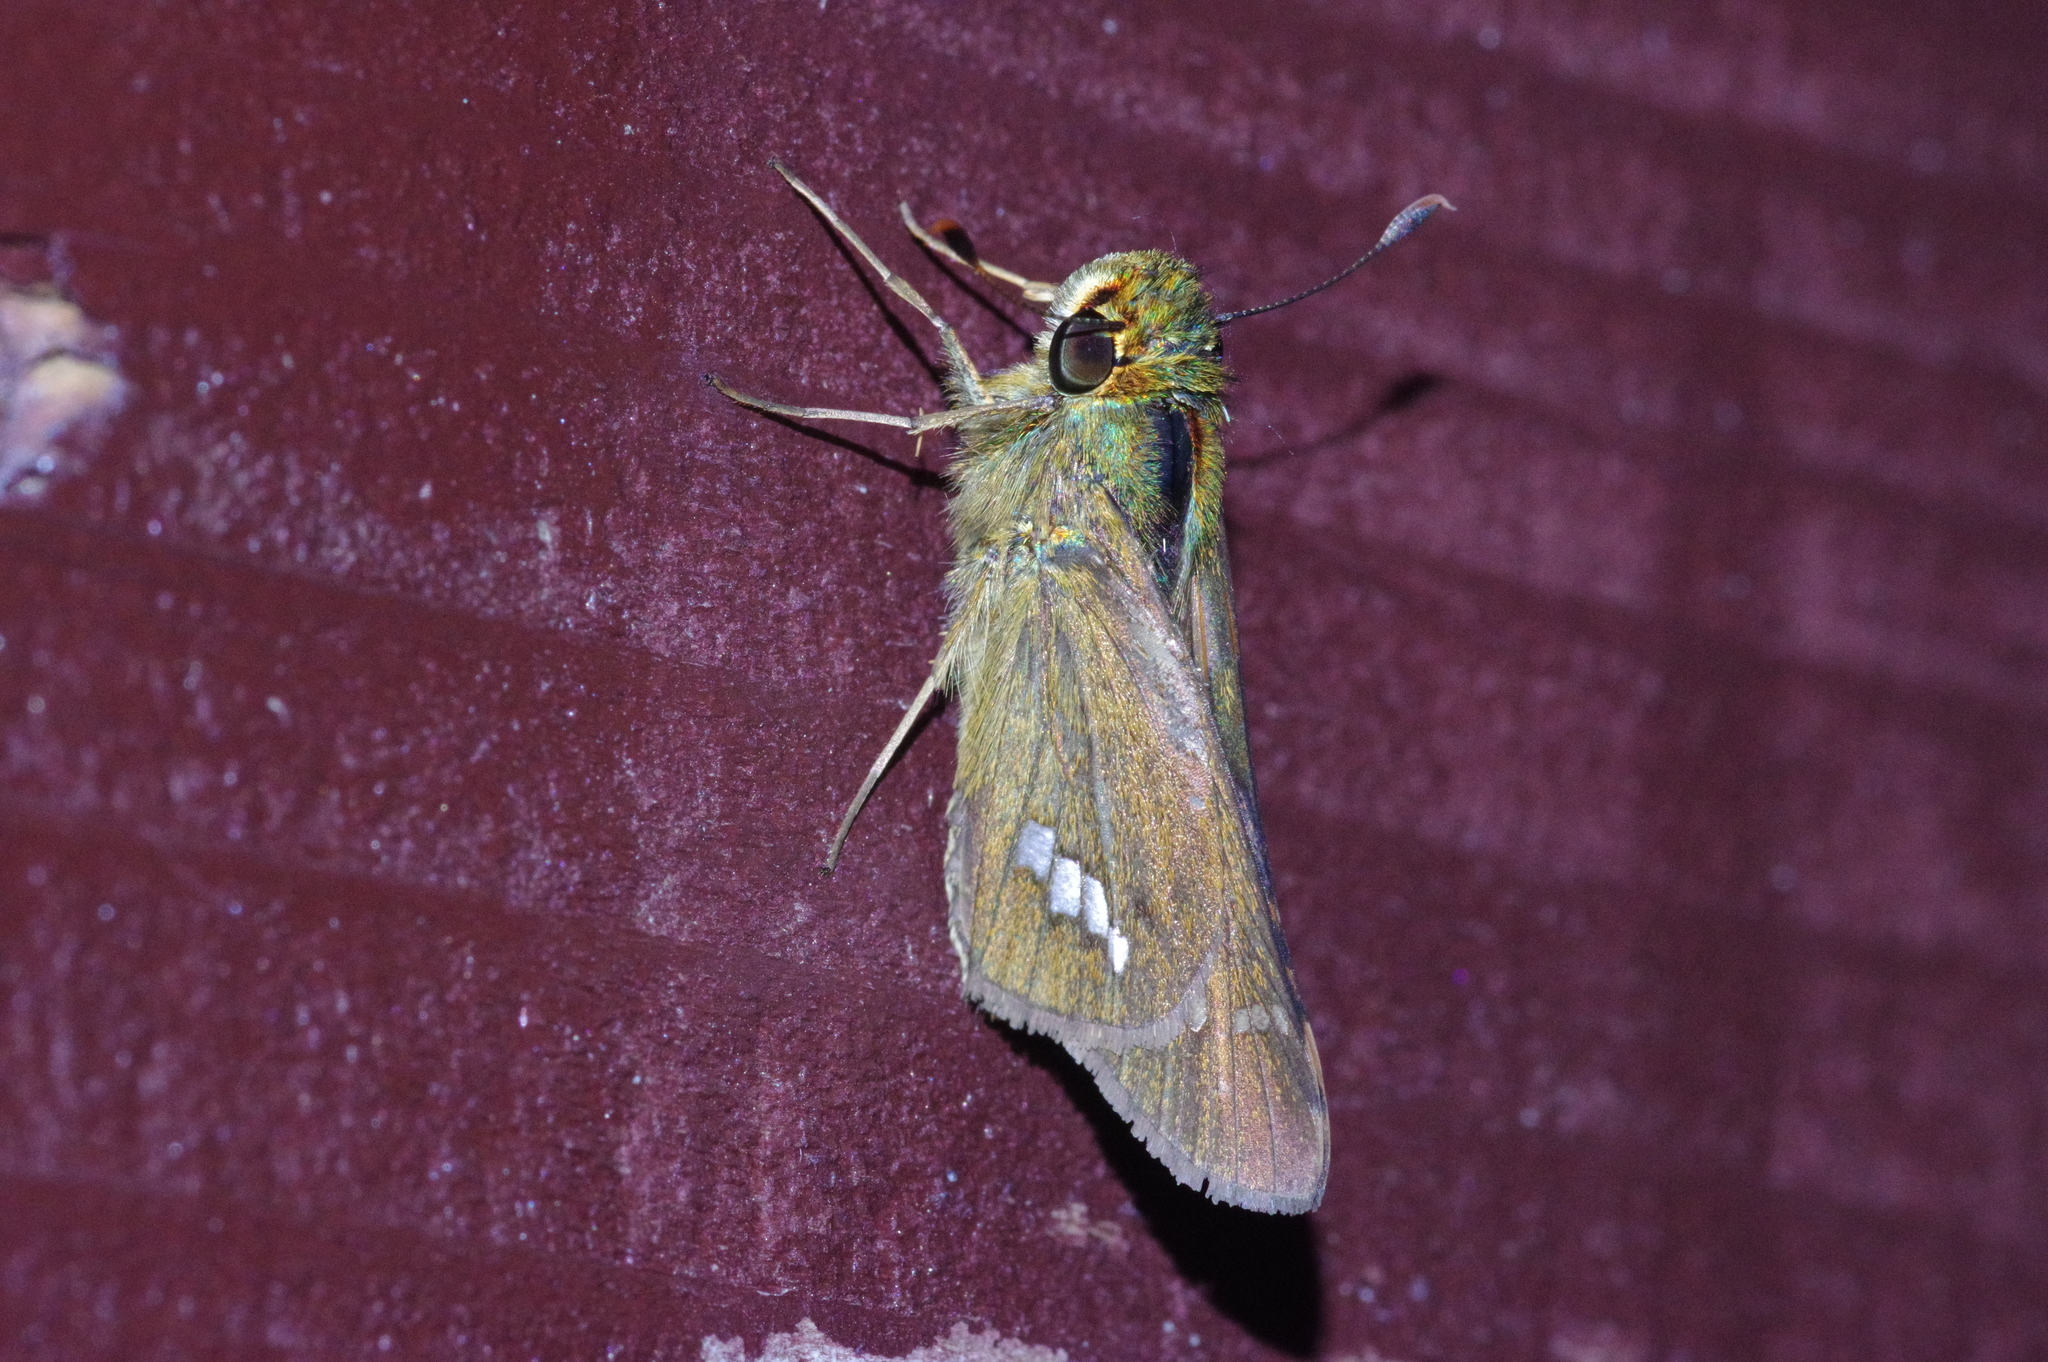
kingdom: Animalia
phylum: Arthropoda
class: Insecta
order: Lepidoptera
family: Hesperiidae
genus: Parnara
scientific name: Parnara guttatus
